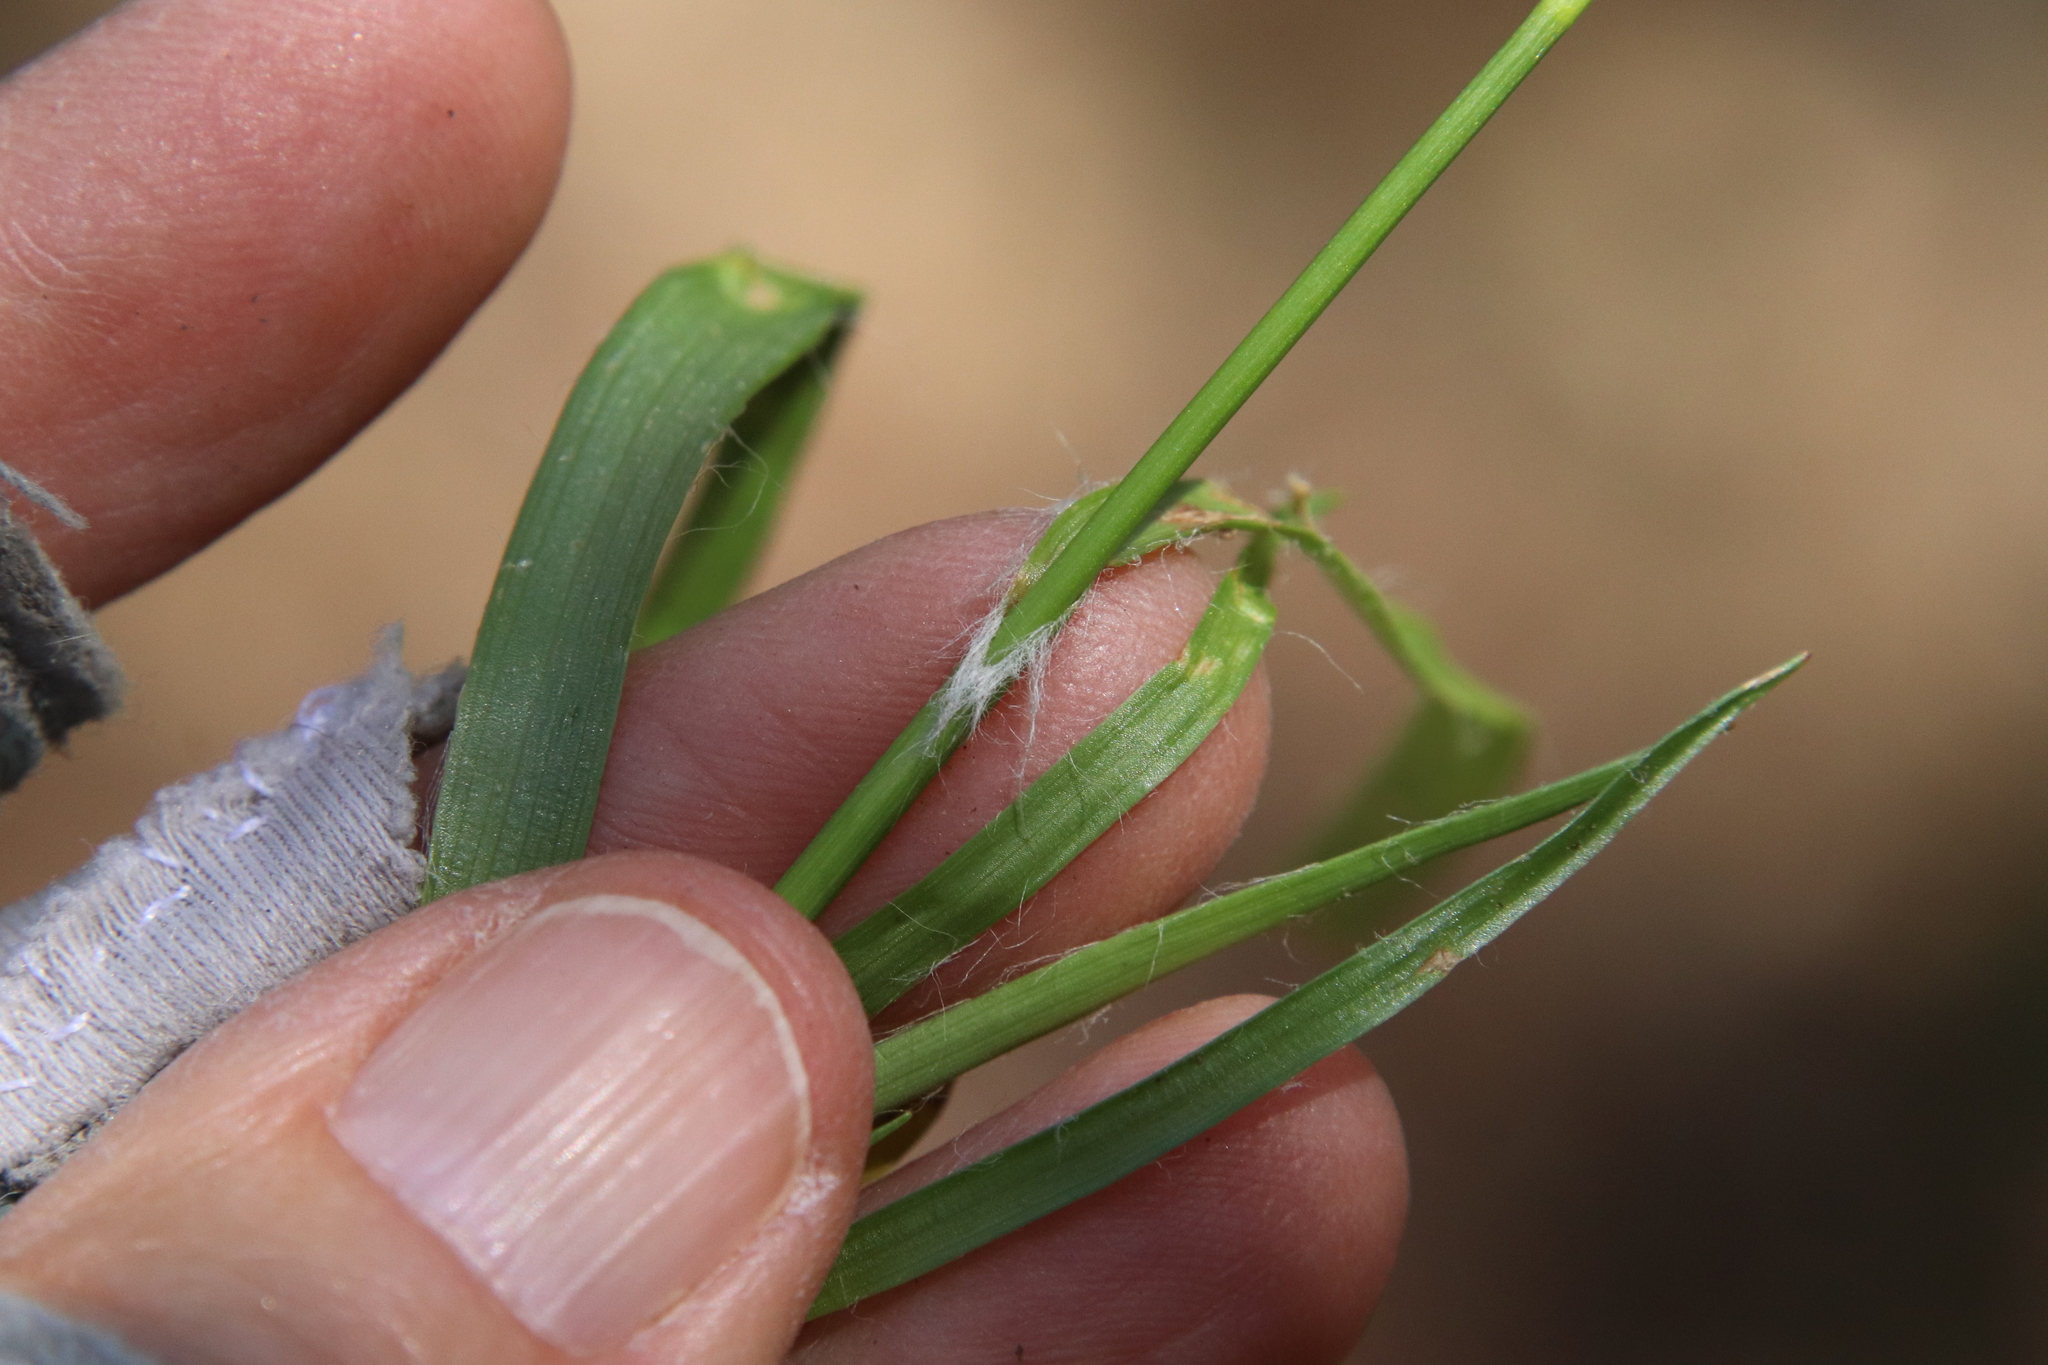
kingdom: Plantae
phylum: Tracheophyta
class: Liliopsida
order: Poales
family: Juncaceae
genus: Luzula
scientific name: Luzula comosa
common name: Pacific woodrush
